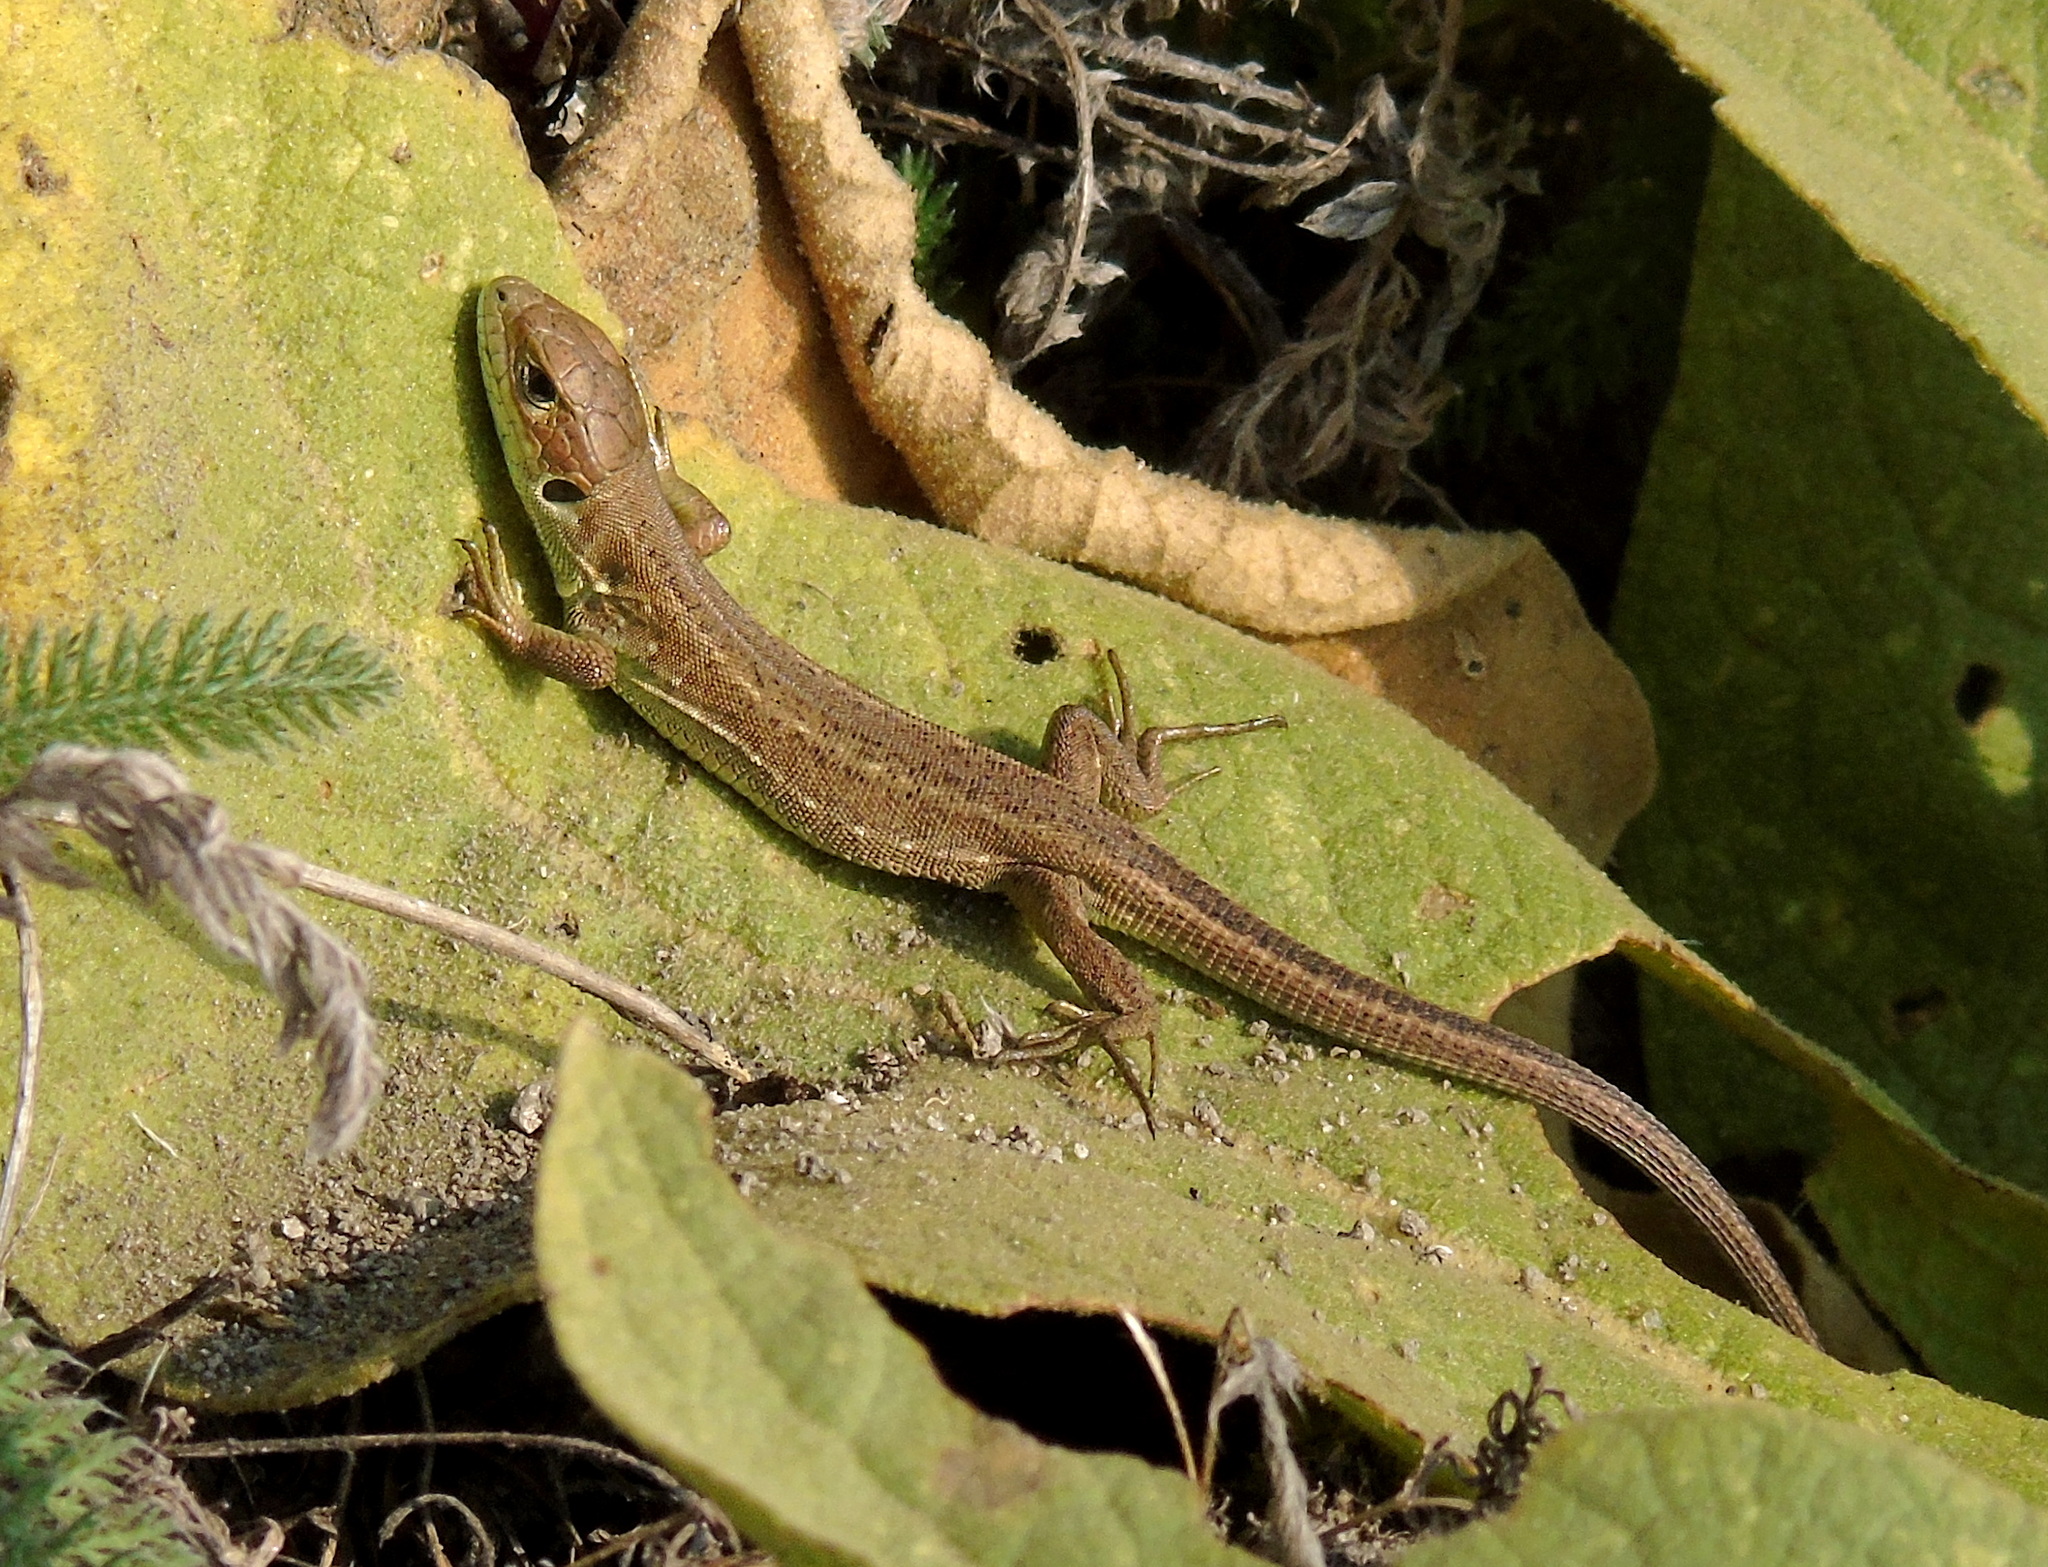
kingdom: Animalia
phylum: Chordata
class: Squamata
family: Lacertidae
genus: Lacerta
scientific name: Lacerta viridis
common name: European green lizard
